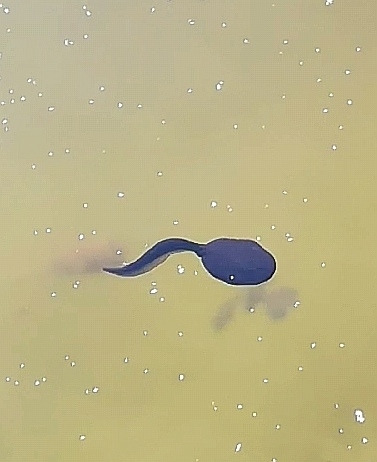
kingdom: Animalia
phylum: Chordata
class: Amphibia
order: Anura
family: Bufonidae
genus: Bufo
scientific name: Bufo bufo
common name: Common toad
